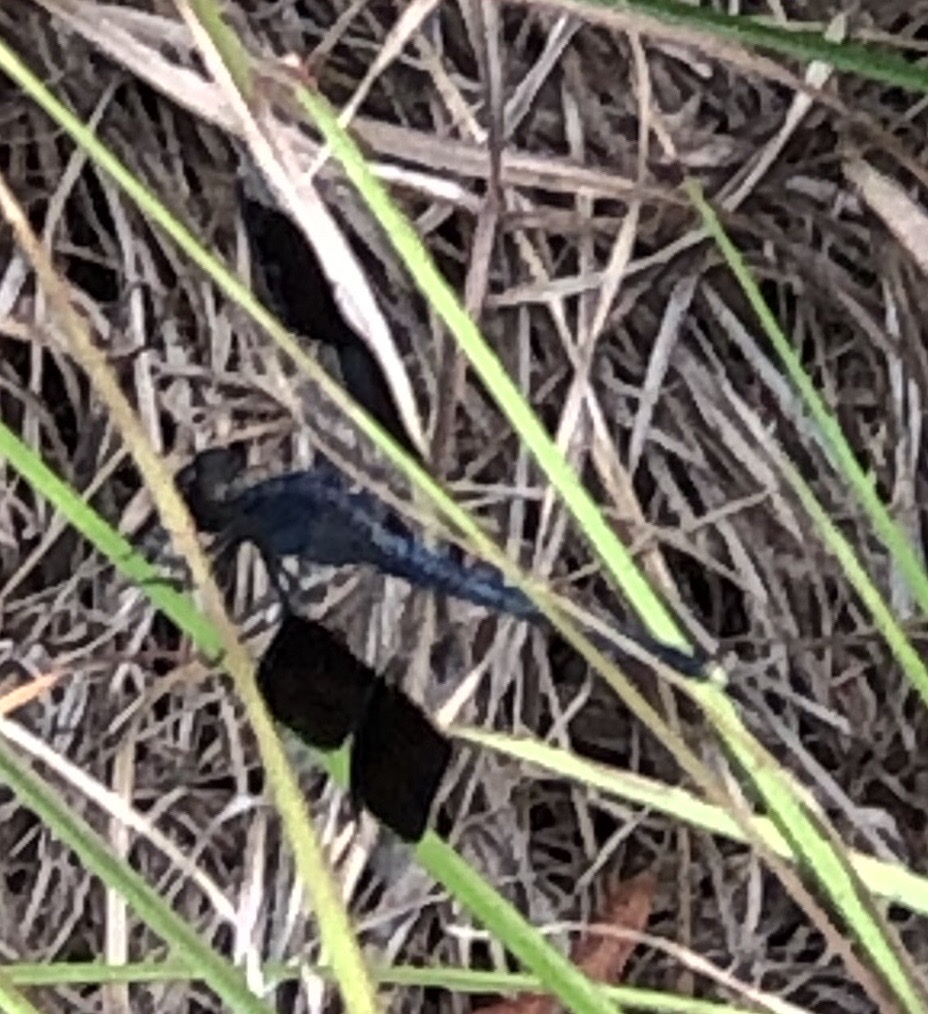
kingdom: Animalia
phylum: Arthropoda
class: Insecta
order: Odonata
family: Libellulidae
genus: Erythrodiplax
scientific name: Erythrodiplax umbrata
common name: Band-winged dragonlet
